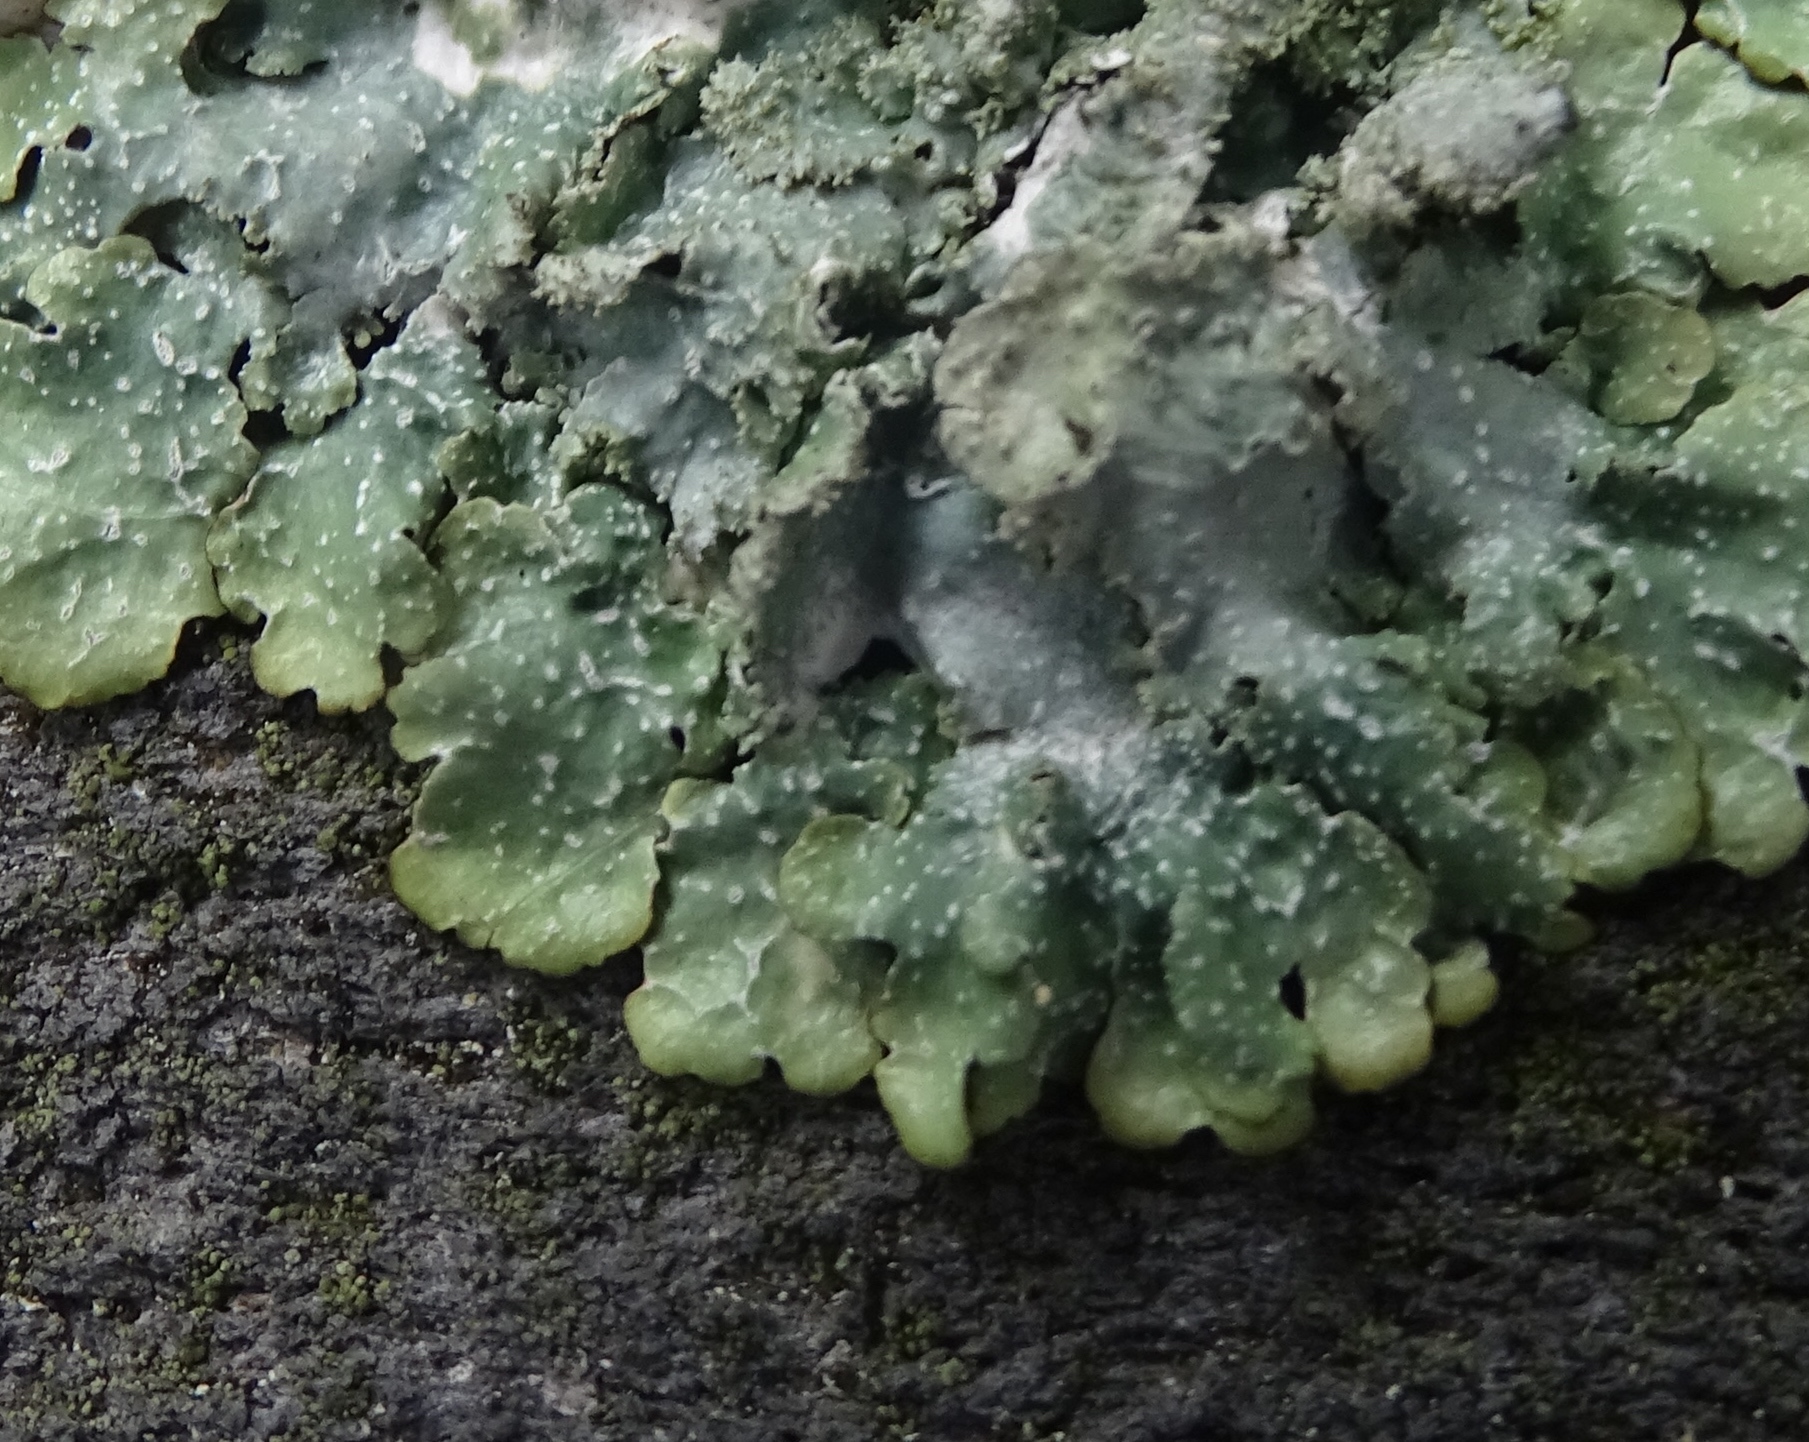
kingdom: Fungi
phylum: Ascomycota
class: Lecanoromycetes
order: Lecanorales
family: Parmeliaceae
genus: Punctelia
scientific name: Punctelia rudecta
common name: Rough speckled shield lichen
